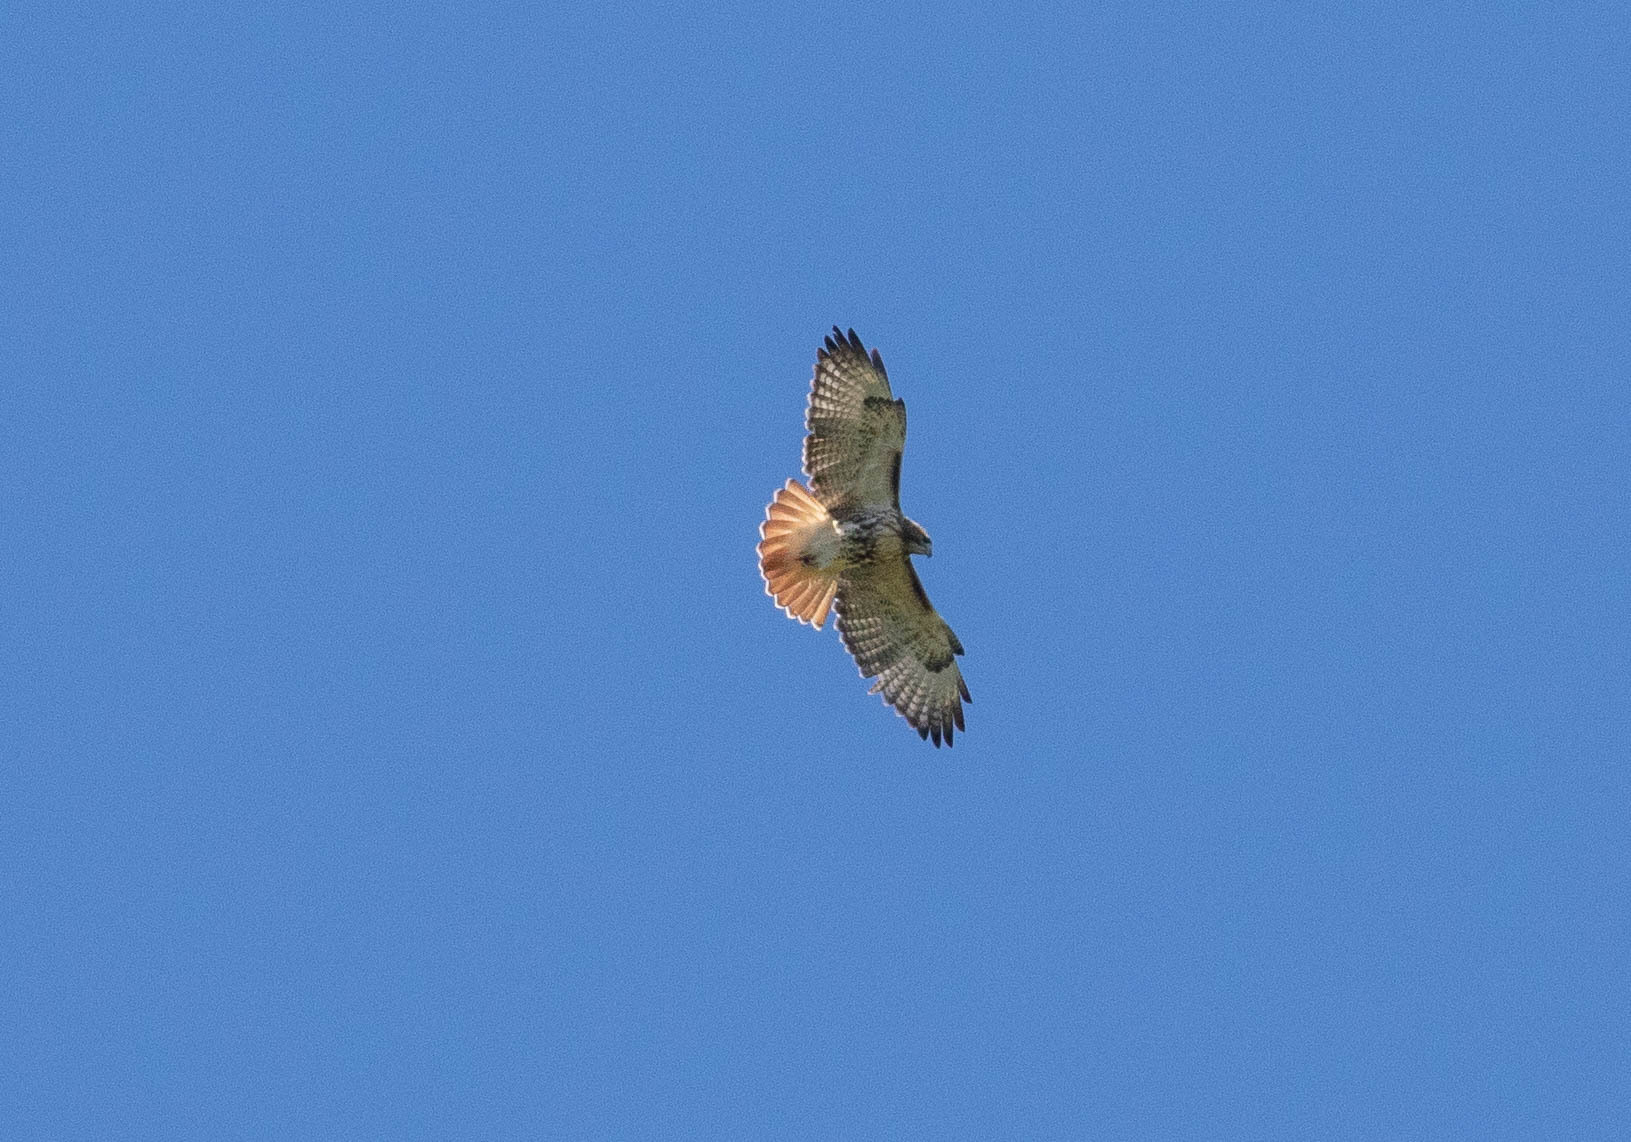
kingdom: Animalia
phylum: Chordata
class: Aves
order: Accipitriformes
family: Accipitridae
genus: Buteo
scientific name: Buteo jamaicensis
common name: Red-tailed hawk
